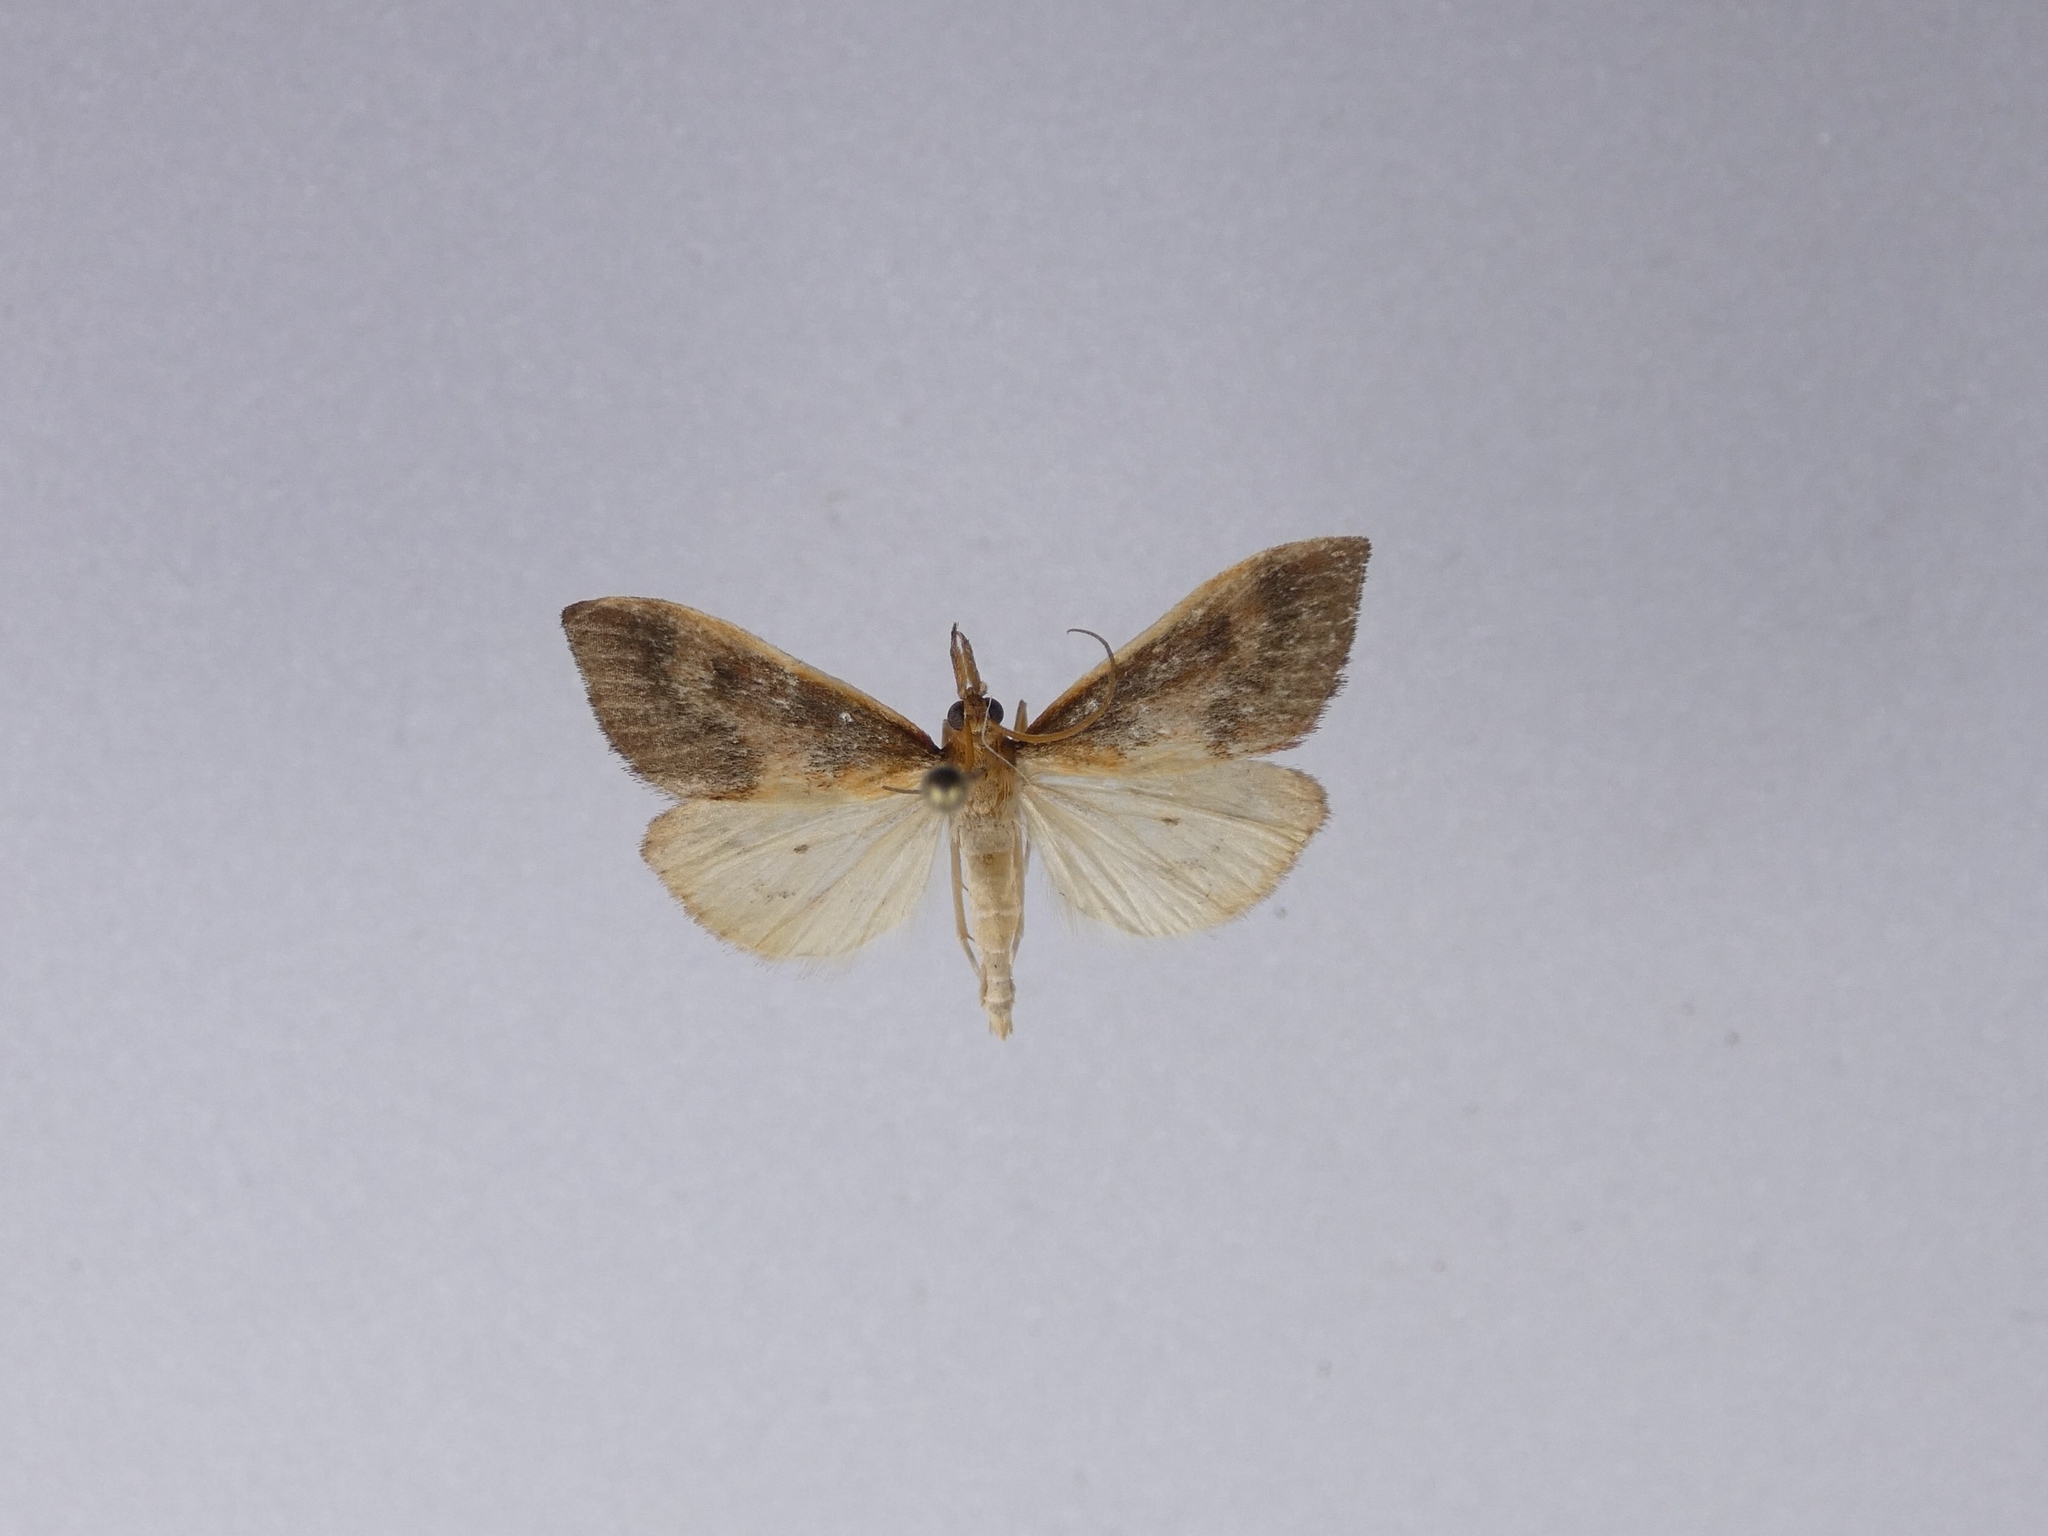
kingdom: Animalia
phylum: Arthropoda
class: Insecta
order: Lepidoptera
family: Crambidae
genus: Udea
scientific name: Udea daiclesalis
